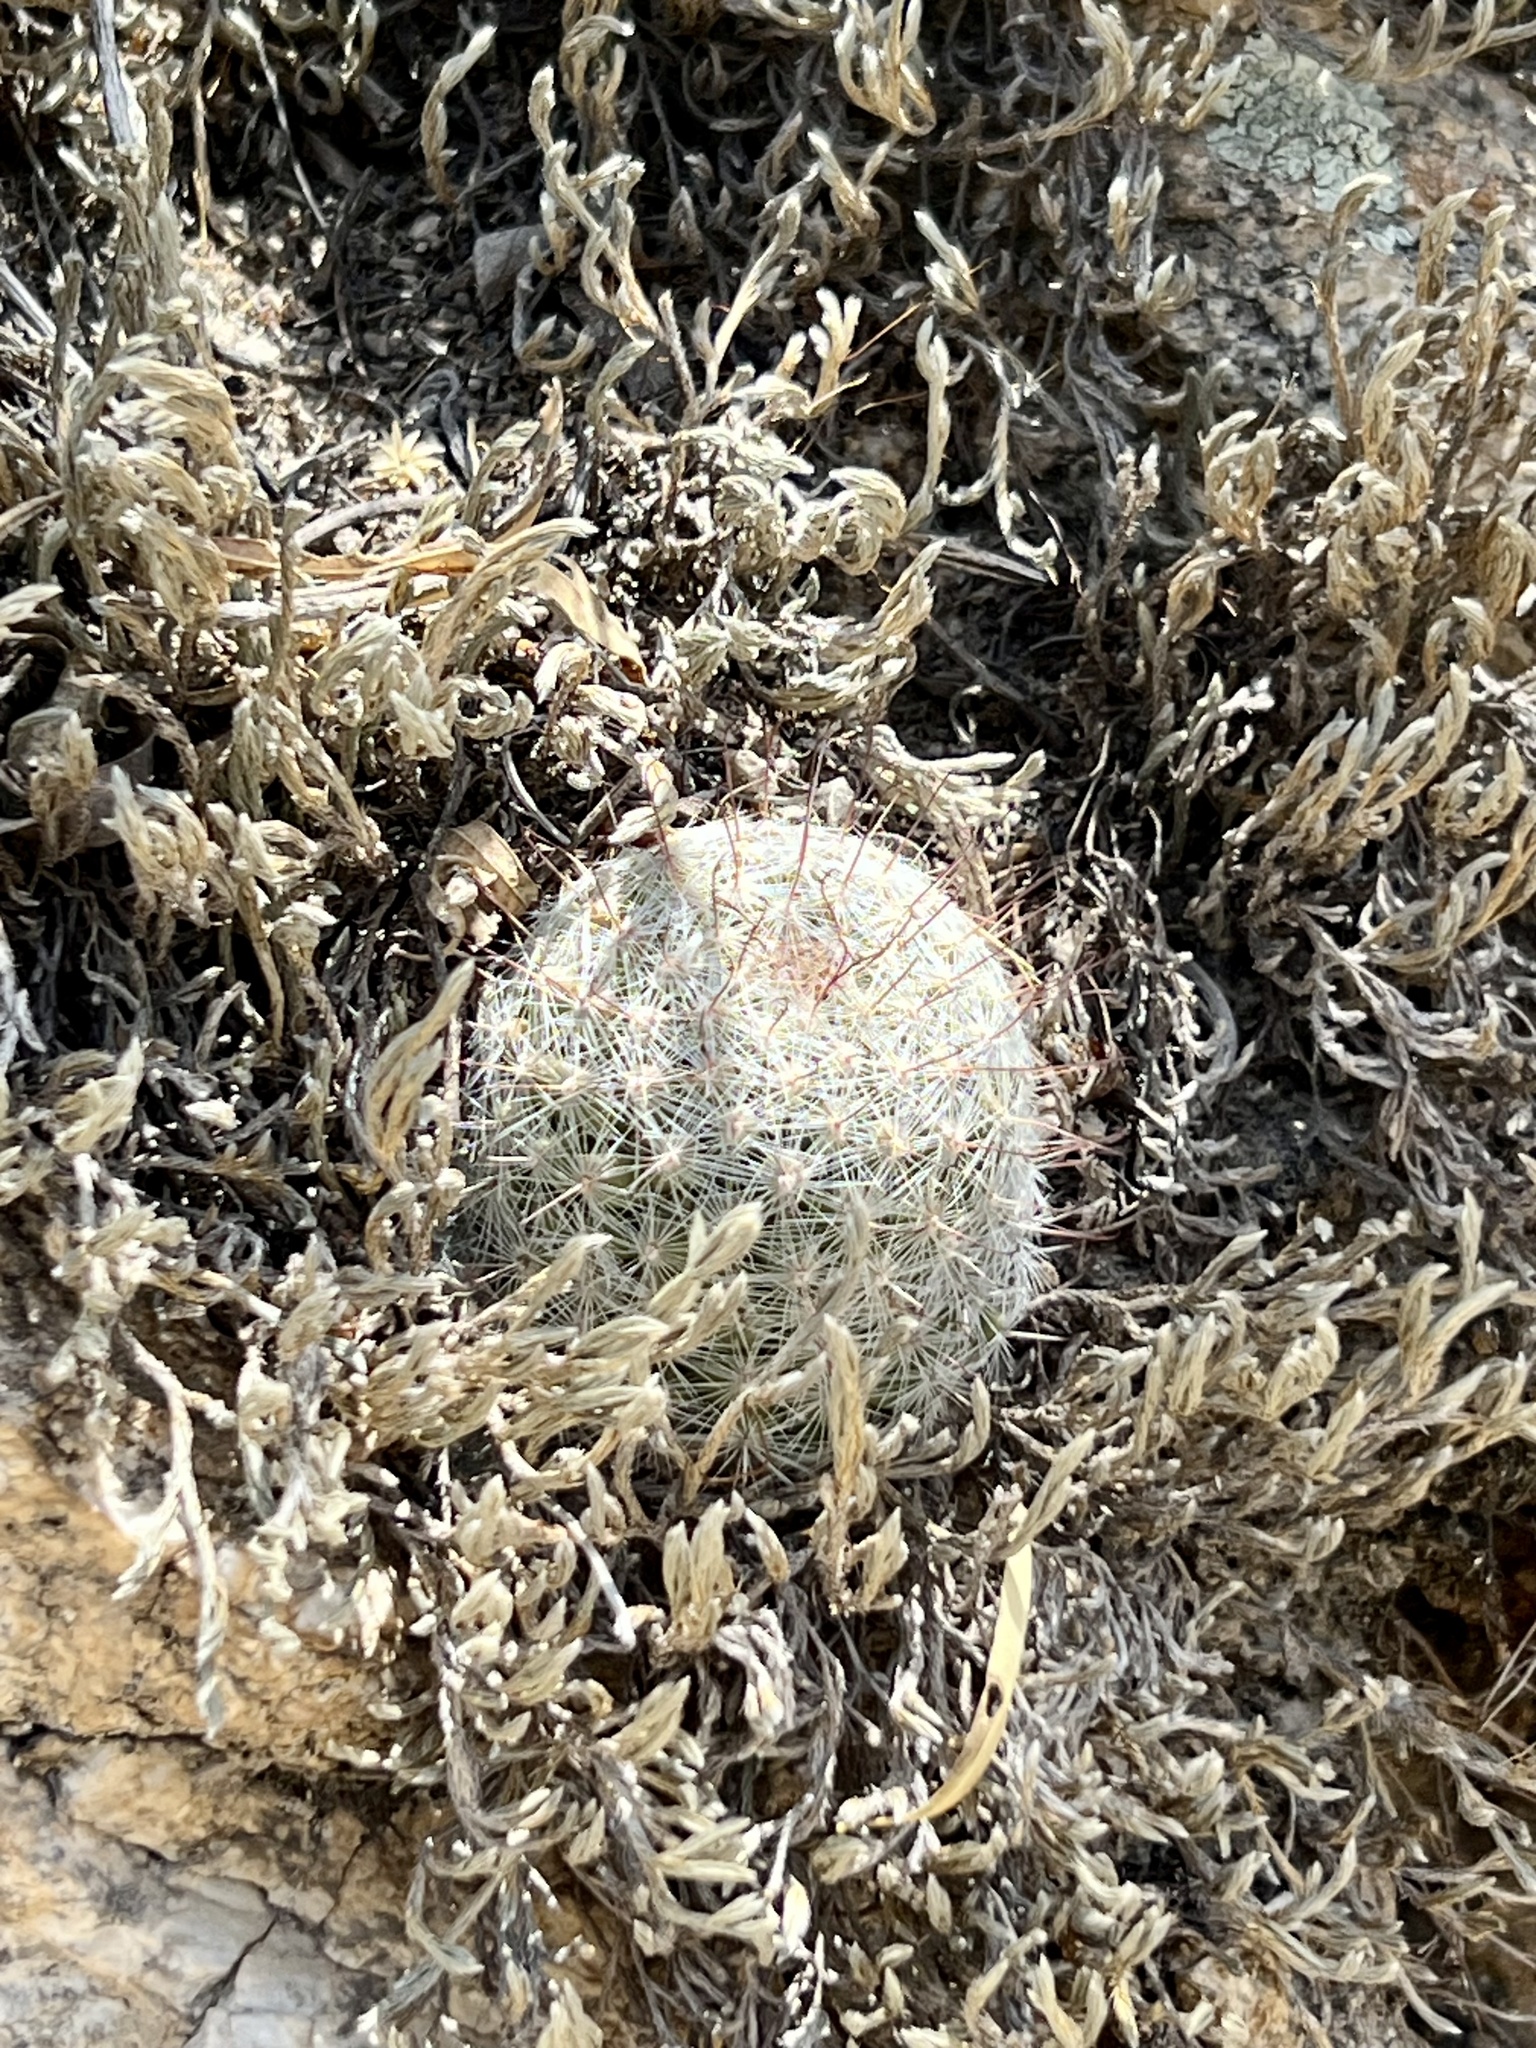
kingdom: Plantae
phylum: Tracheophyta
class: Magnoliopsida
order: Caryophyllales
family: Cactaceae
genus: Cochemiea
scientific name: Cochemiea grahamii
